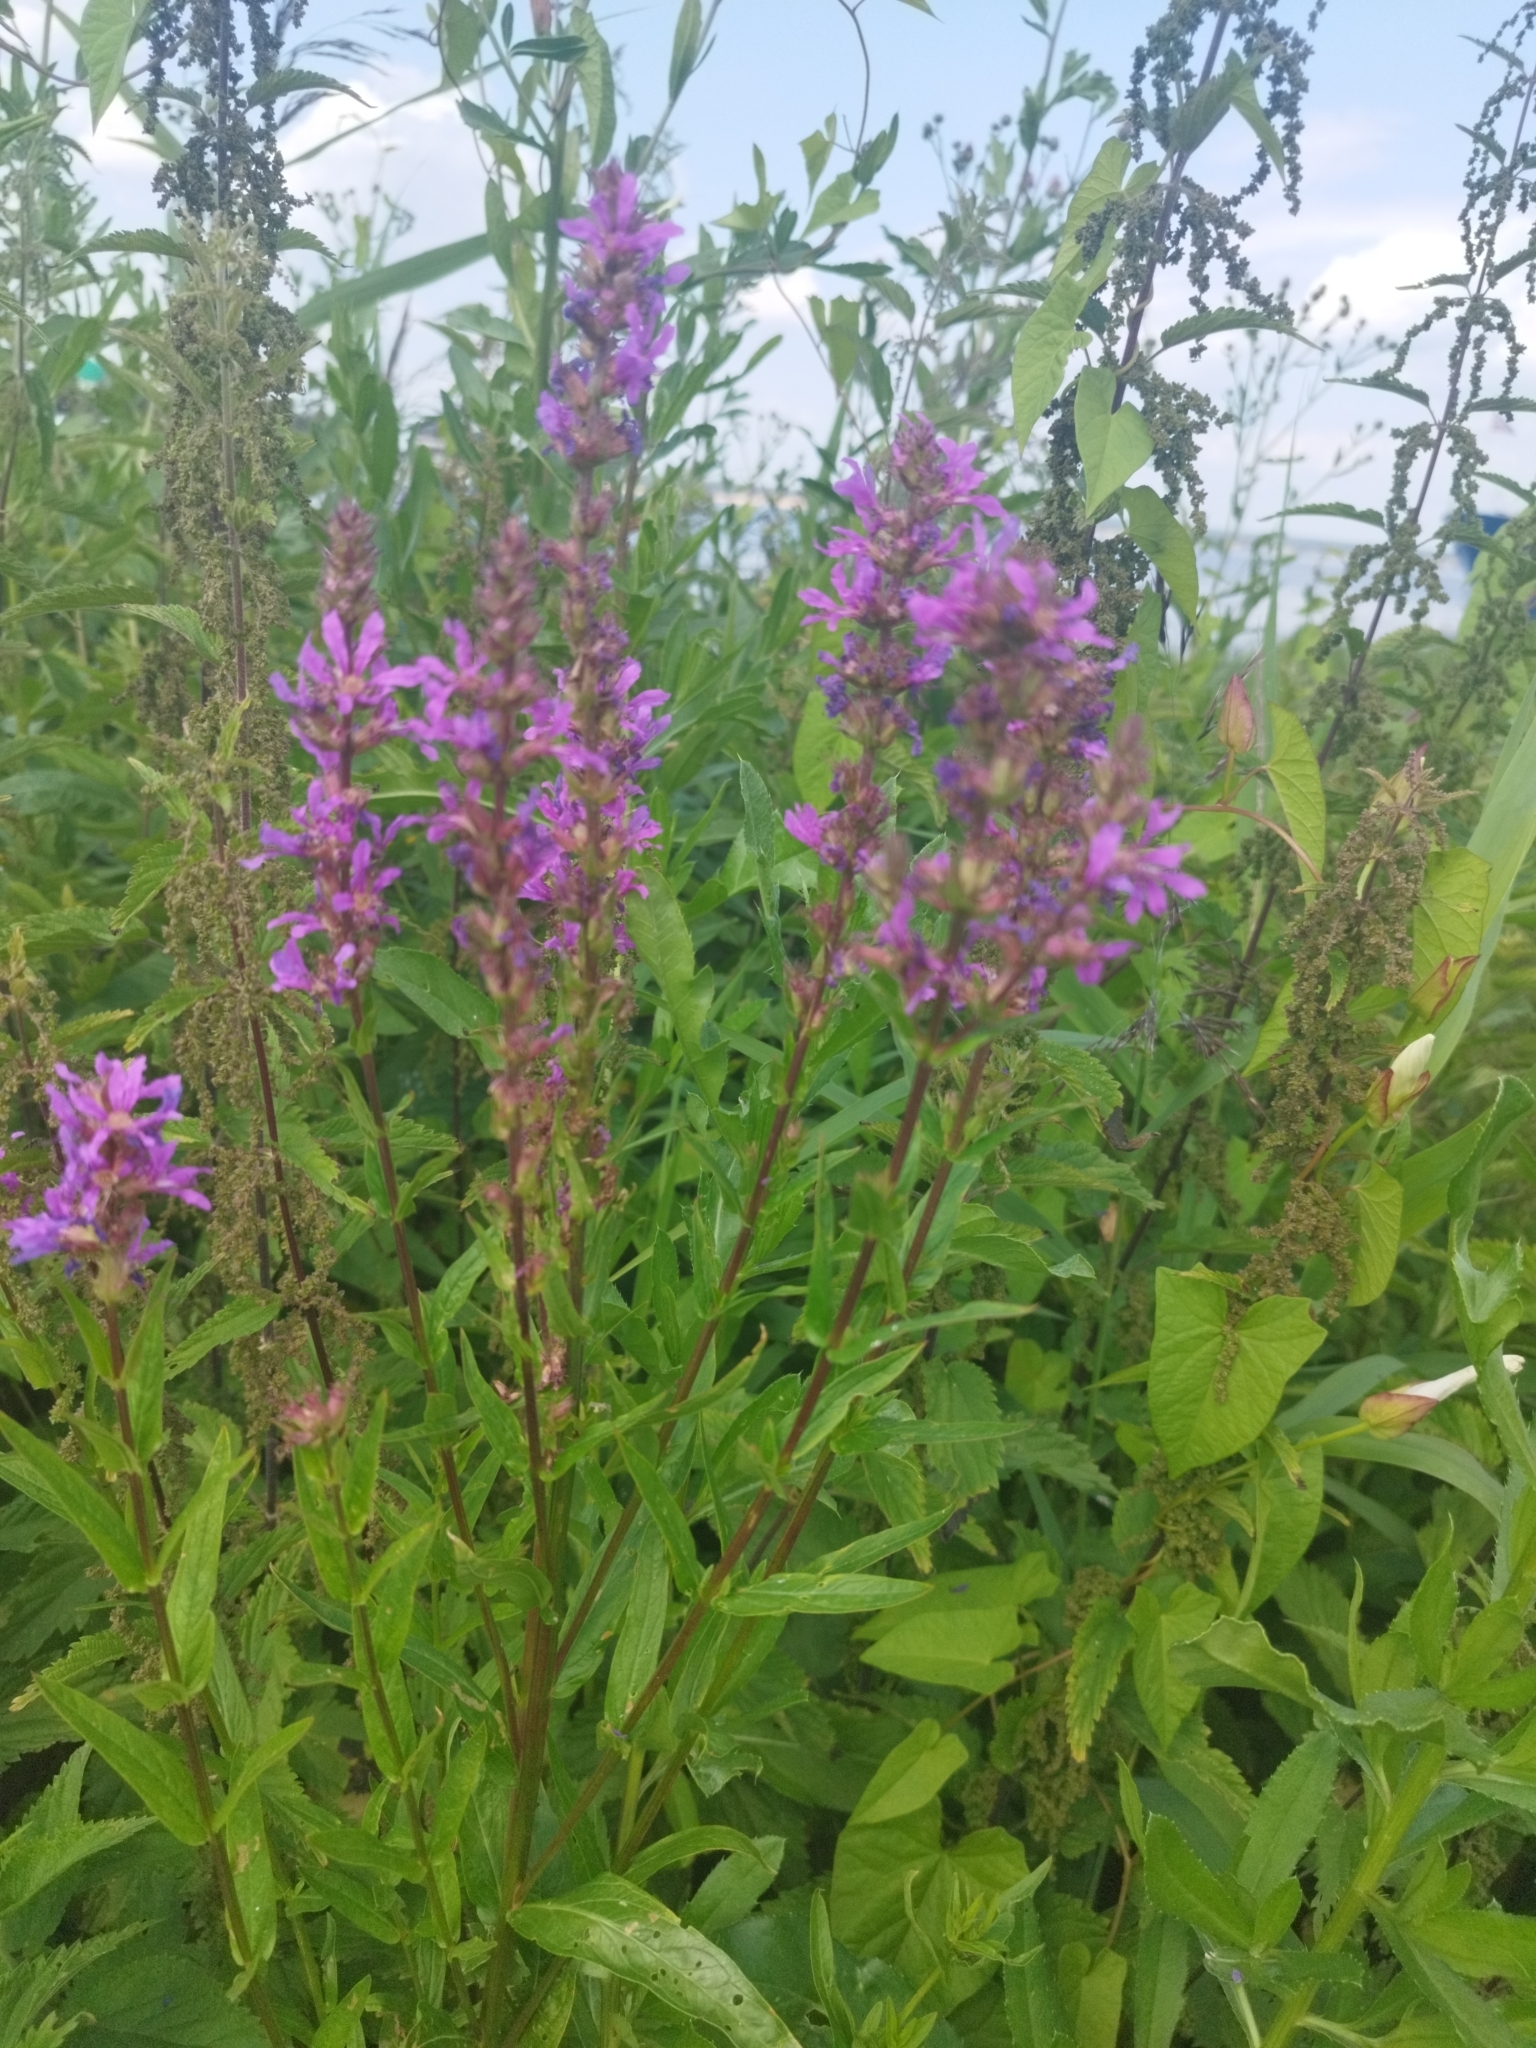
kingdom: Plantae
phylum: Tracheophyta
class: Magnoliopsida
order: Myrtales
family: Lythraceae
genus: Lythrum
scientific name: Lythrum salicaria
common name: Purple loosestrife
